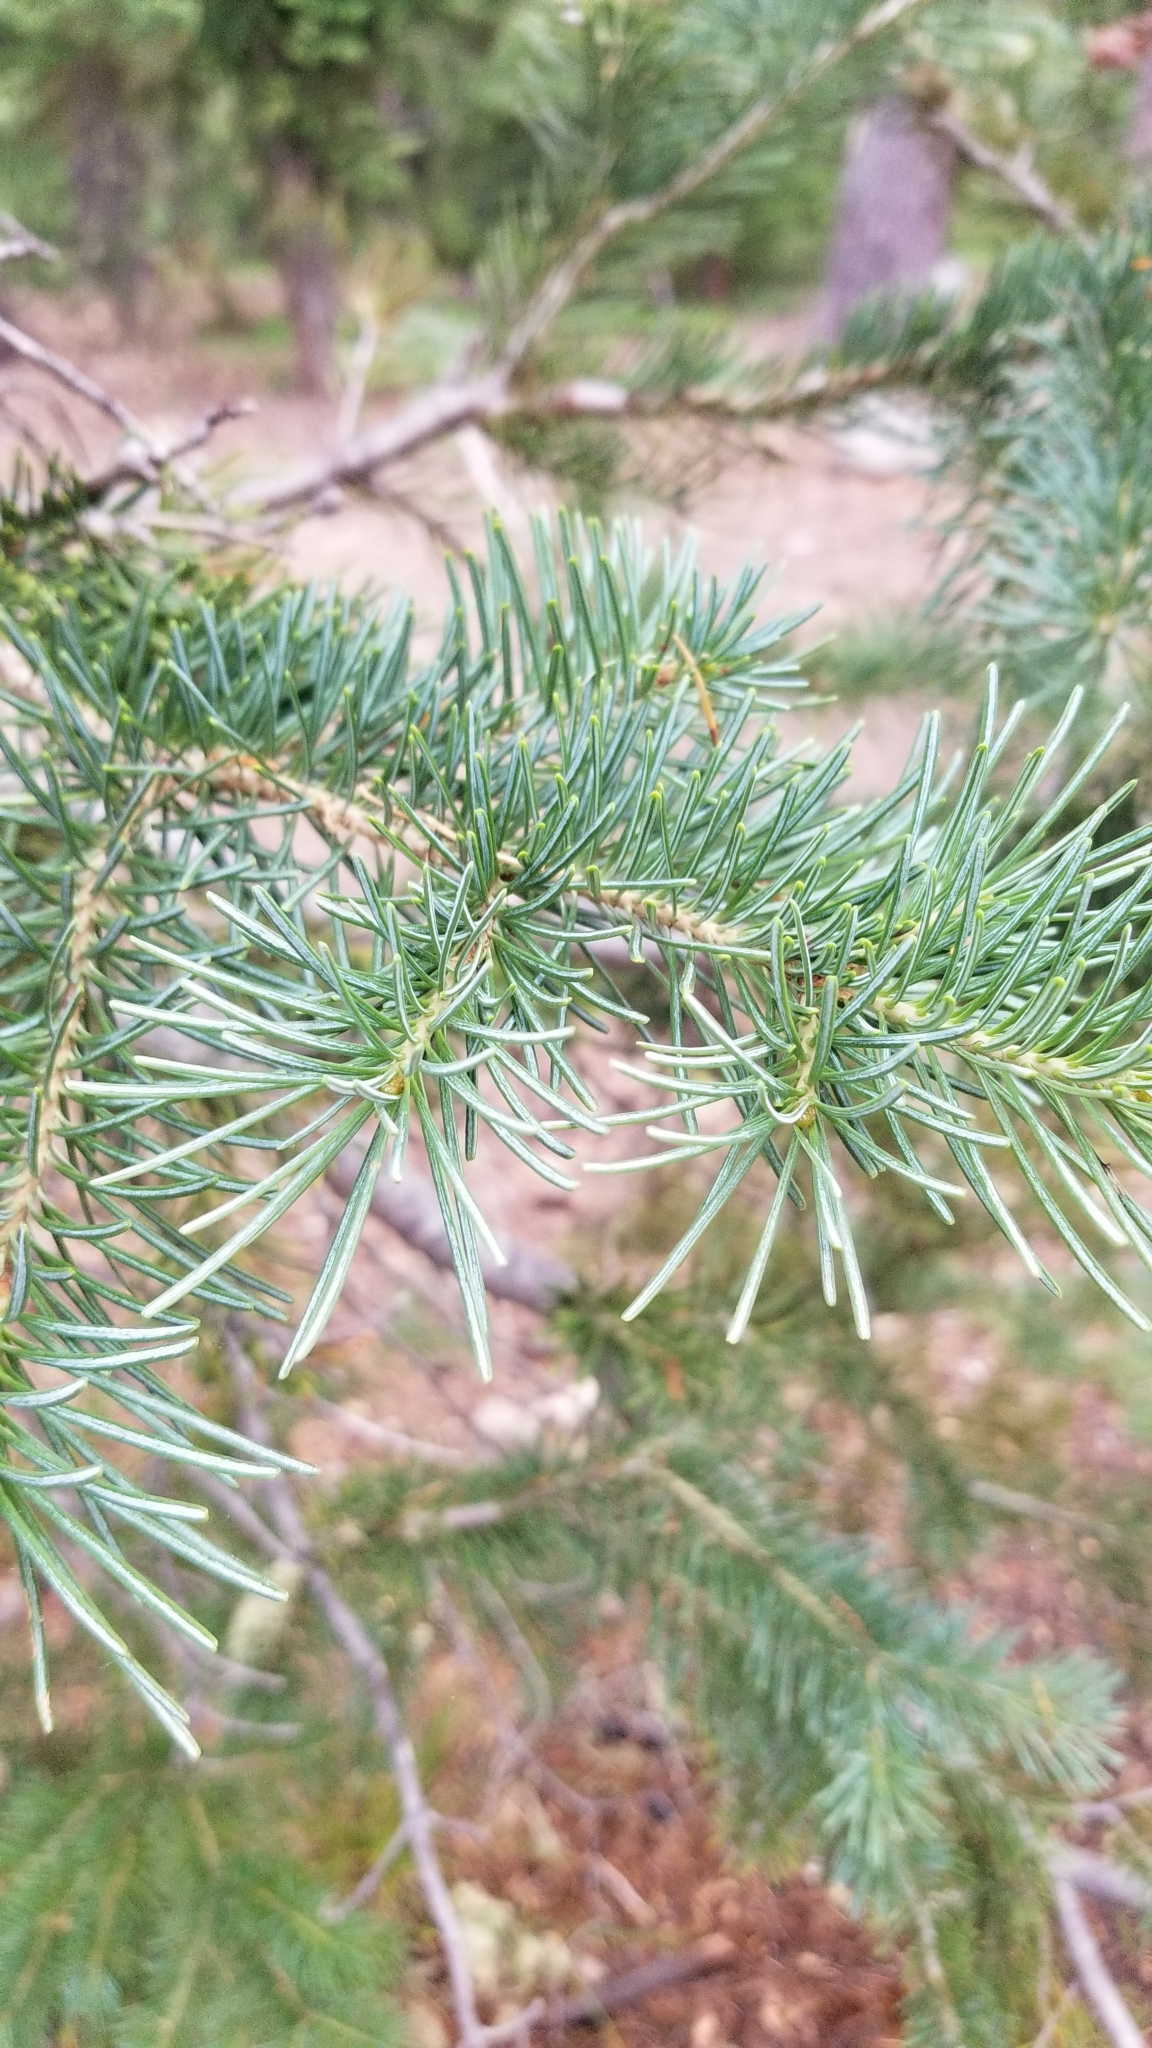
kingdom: Plantae
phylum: Tracheophyta
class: Pinopsida
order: Pinales
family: Pinaceae
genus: Abies
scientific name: Abies lasiocarpa
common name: Subalpine fir
